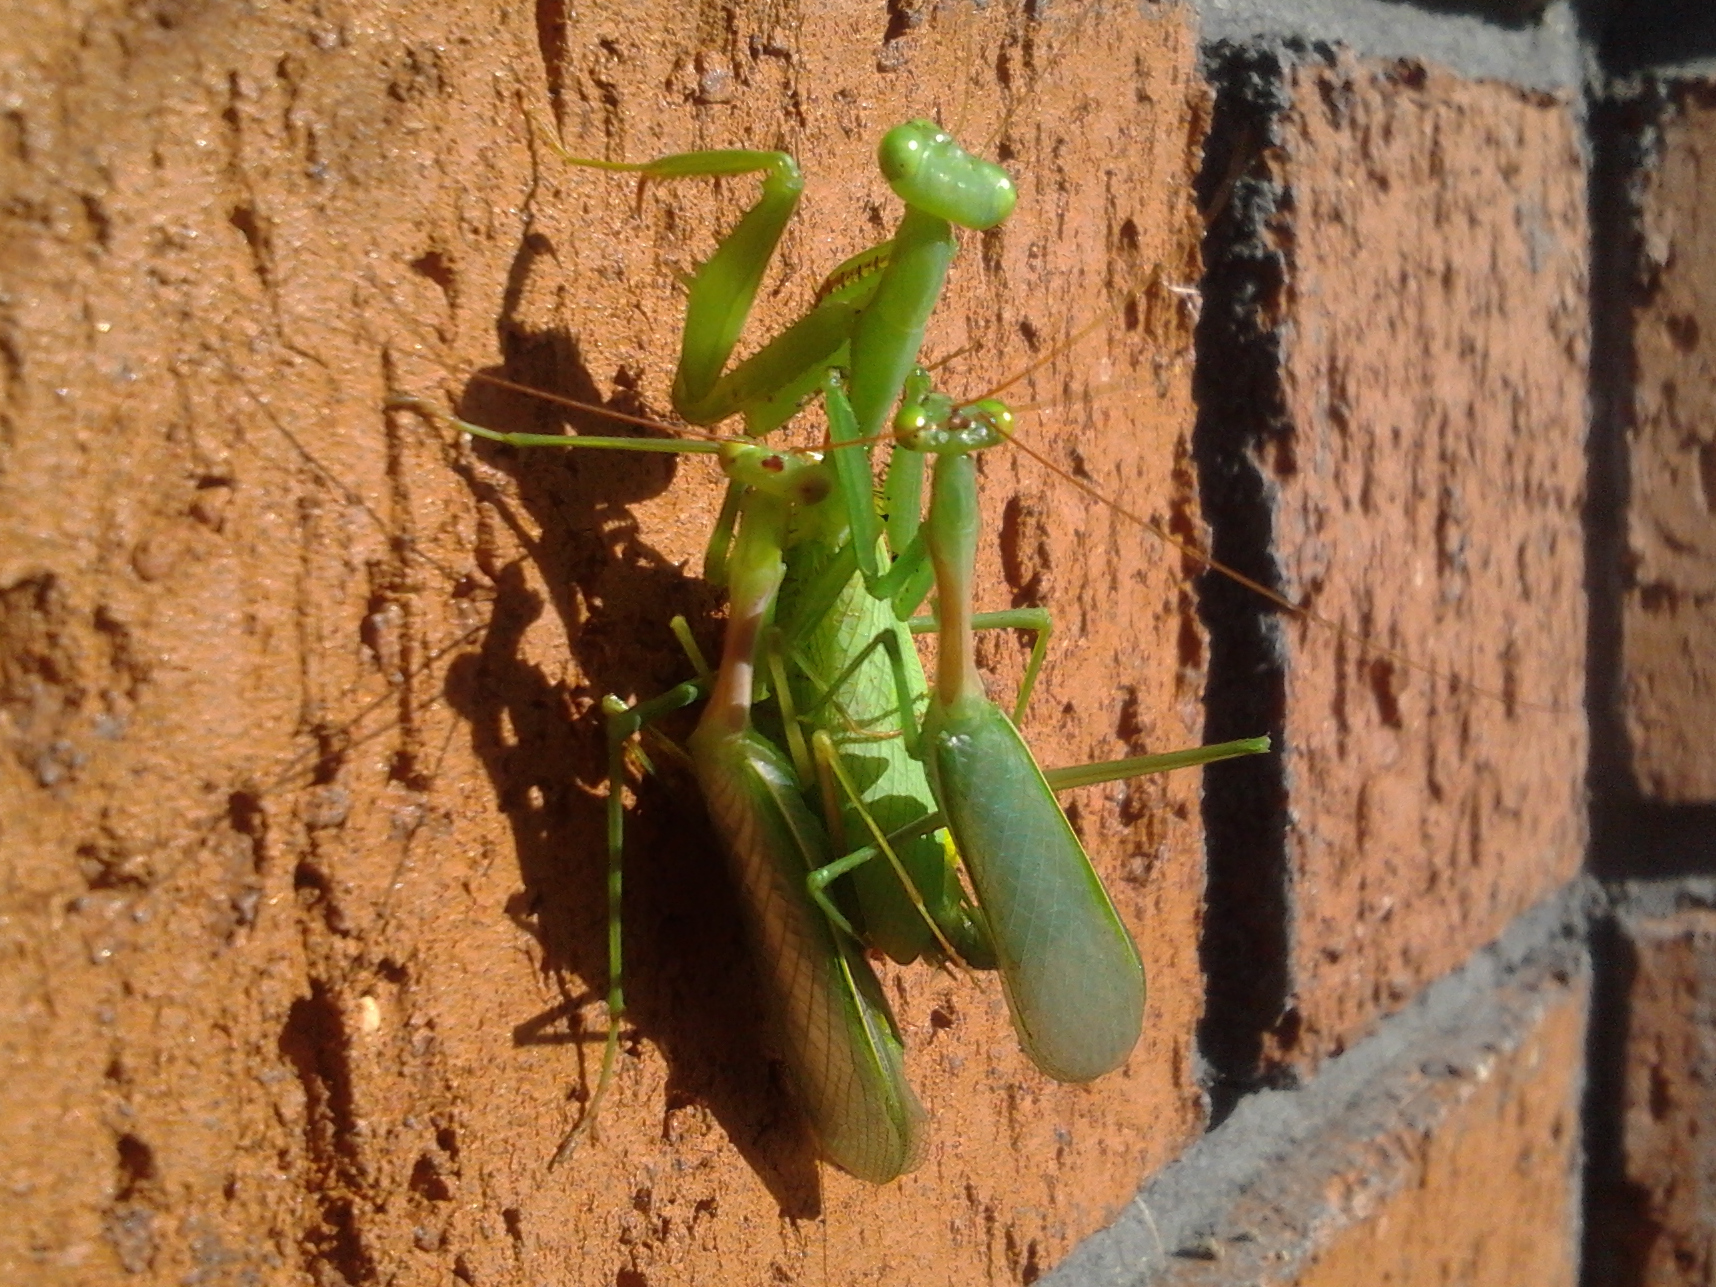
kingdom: Animalia
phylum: Arthropoda
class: Insecta
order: Mantodea
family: Miomantidae
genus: Miomantis
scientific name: Miomantis caffra
